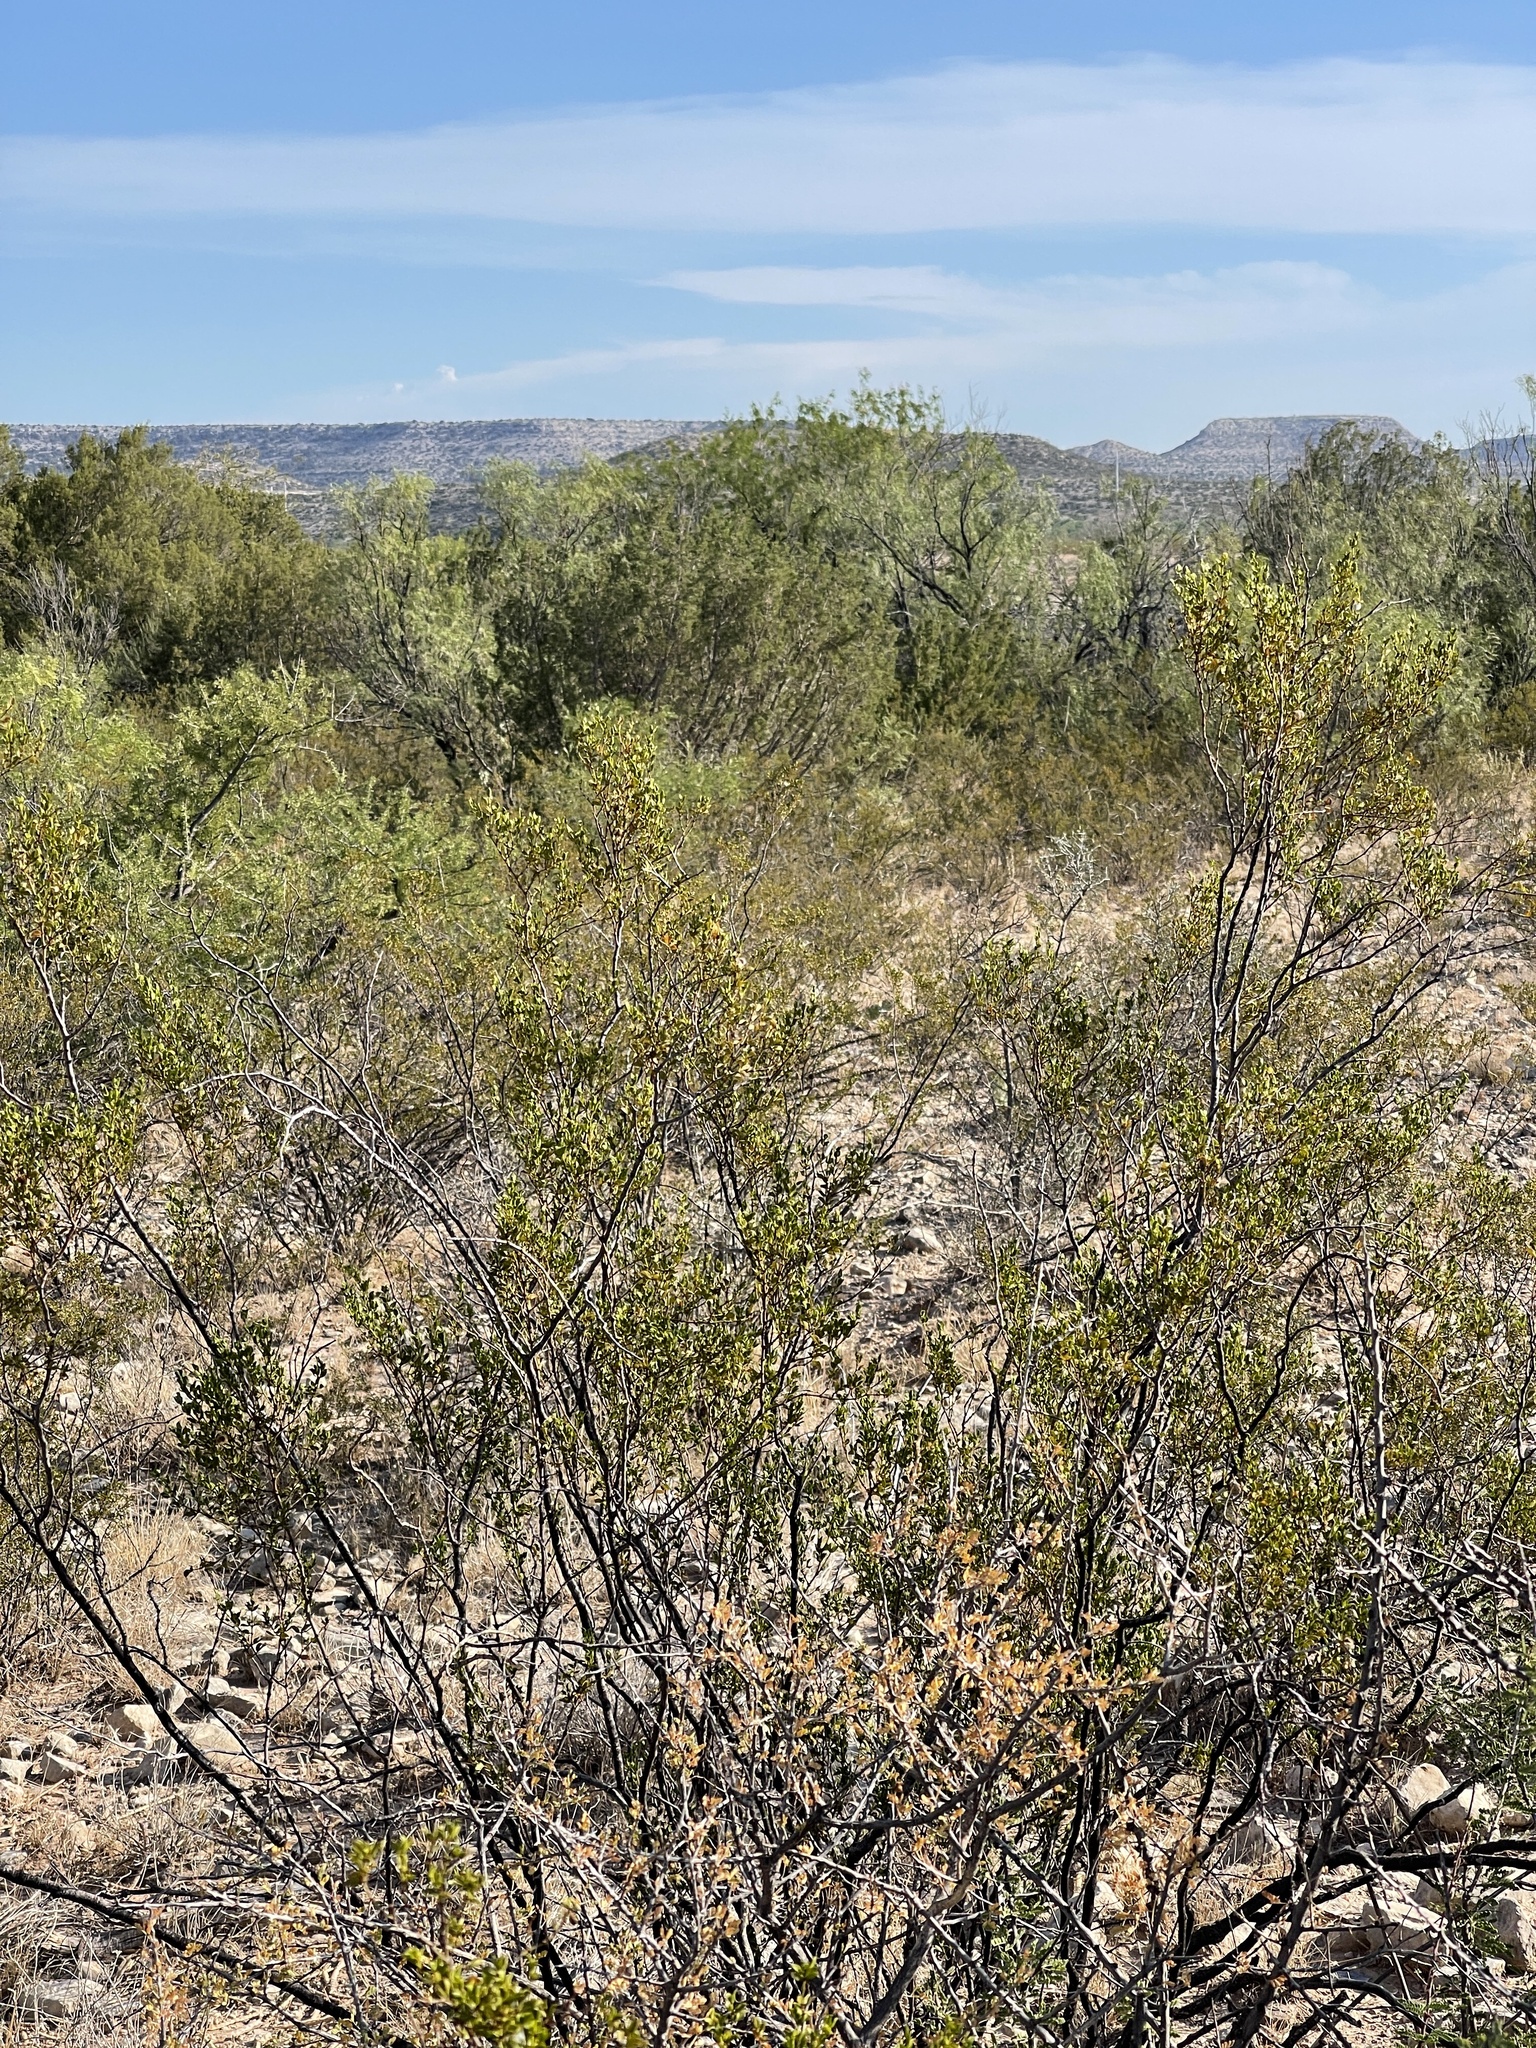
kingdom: Plantae
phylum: Tracheophyta
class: Magnoliopsida
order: Zygophyllales
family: Zygophyllaceae
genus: Larrea
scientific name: Larrea tridentata
